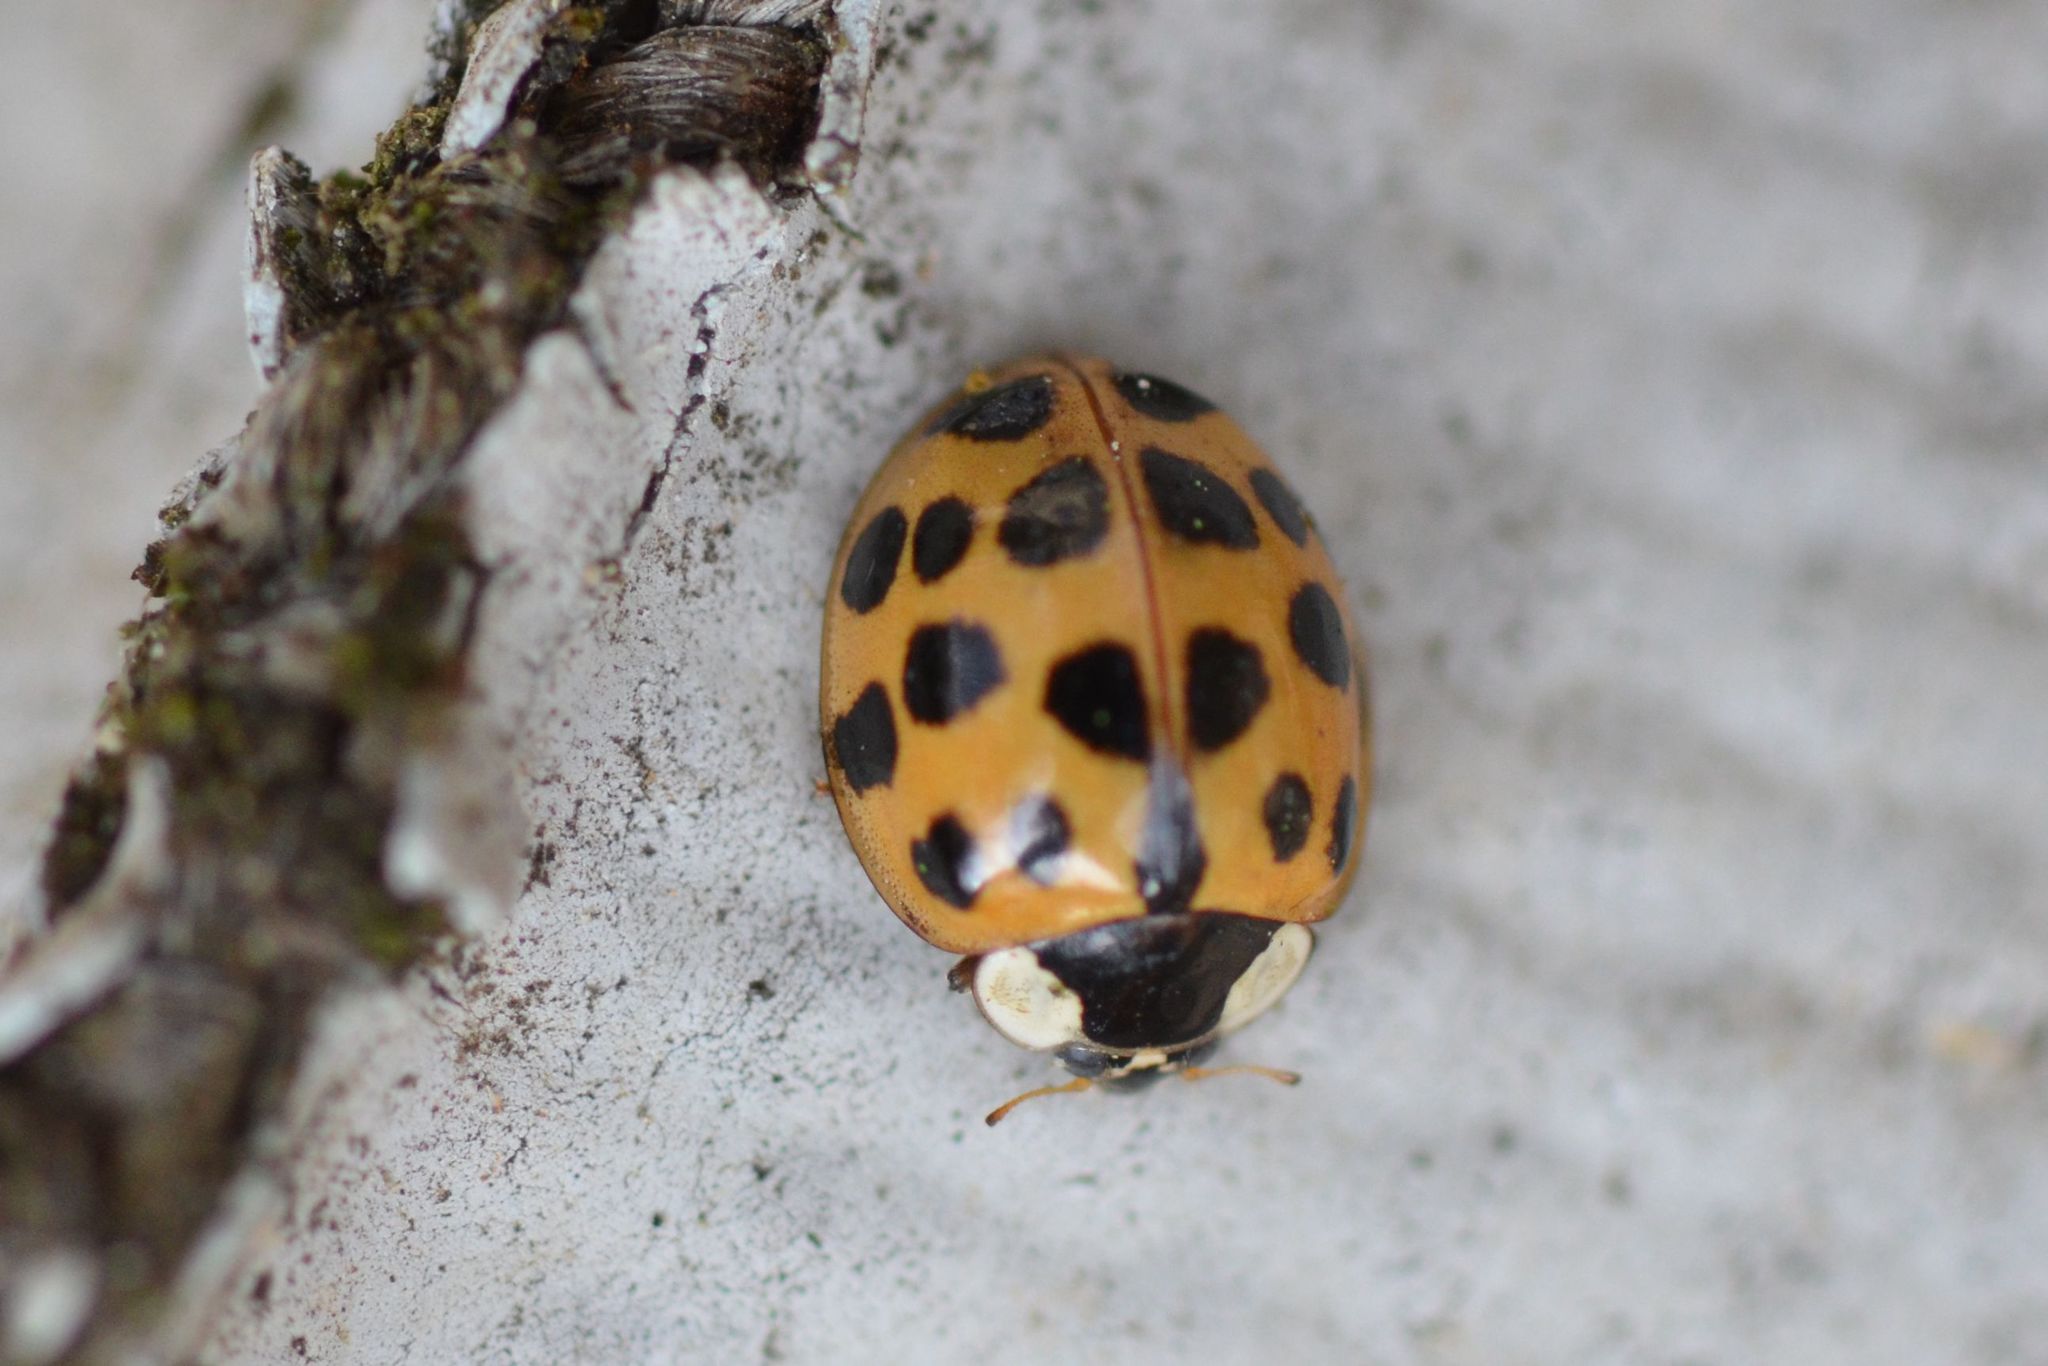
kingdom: Animalia
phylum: Arthropoda
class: Insecta
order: Coleoptera
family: Coccinellidae
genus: Harmonia
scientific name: Harmonia axyridis
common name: Harlequin ladybird
